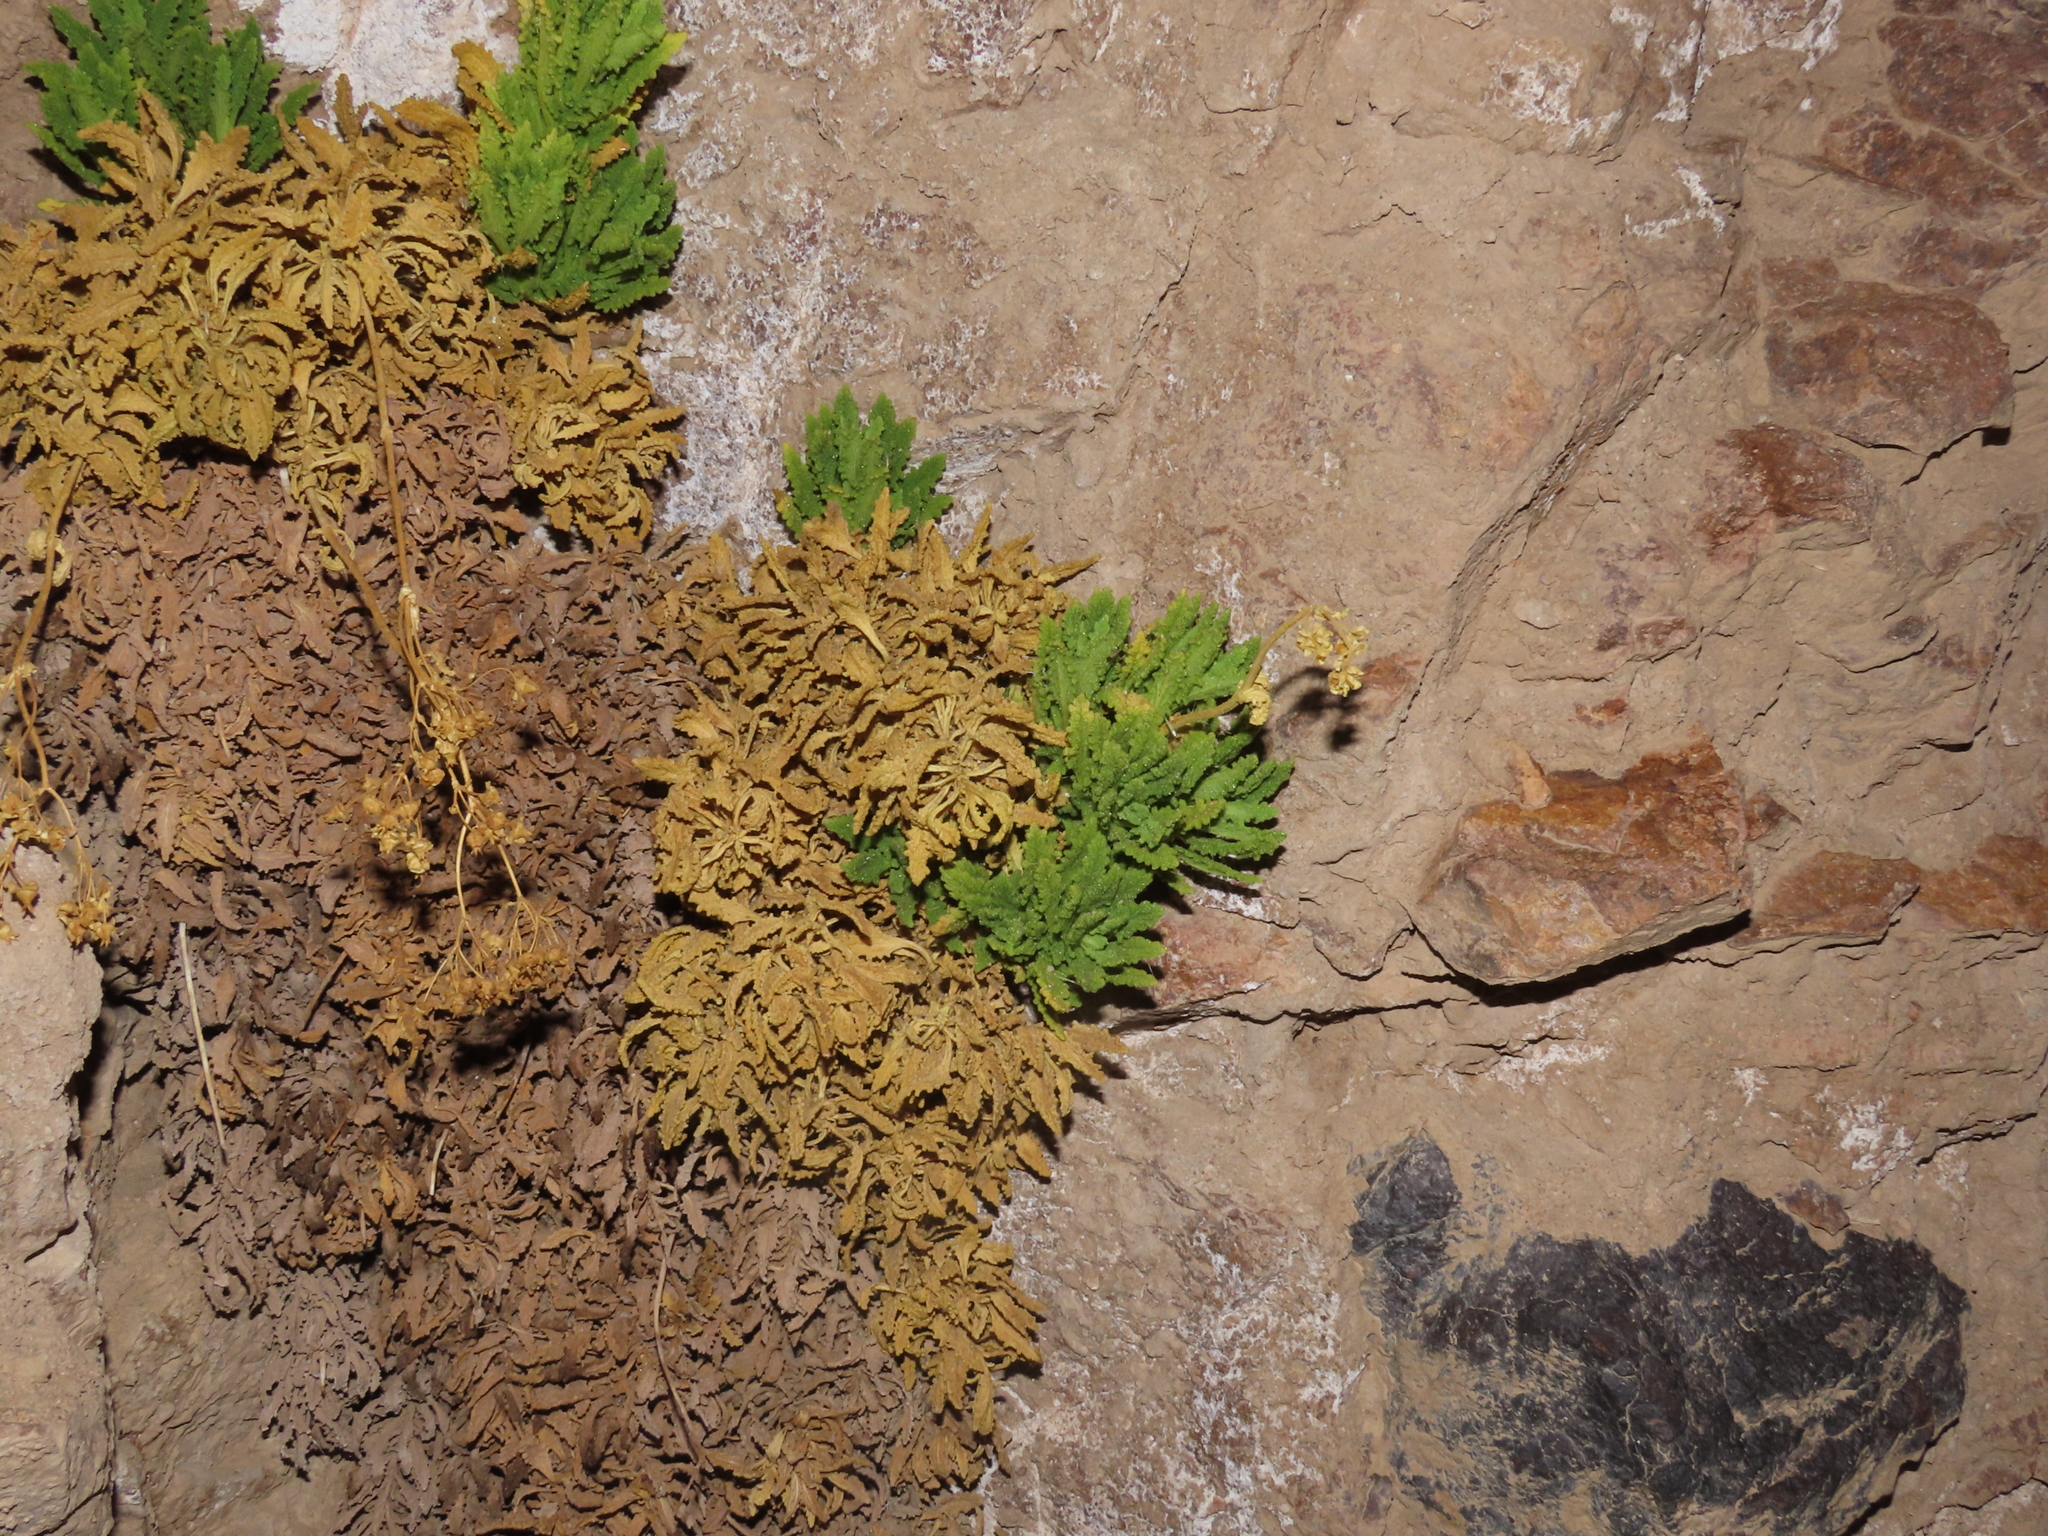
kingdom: Plantae
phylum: Tracheophyta
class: Magnoliopsida
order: Lamiales
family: Calceolariaceae
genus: Calceolaria
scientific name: Calceolaria flavovirens
